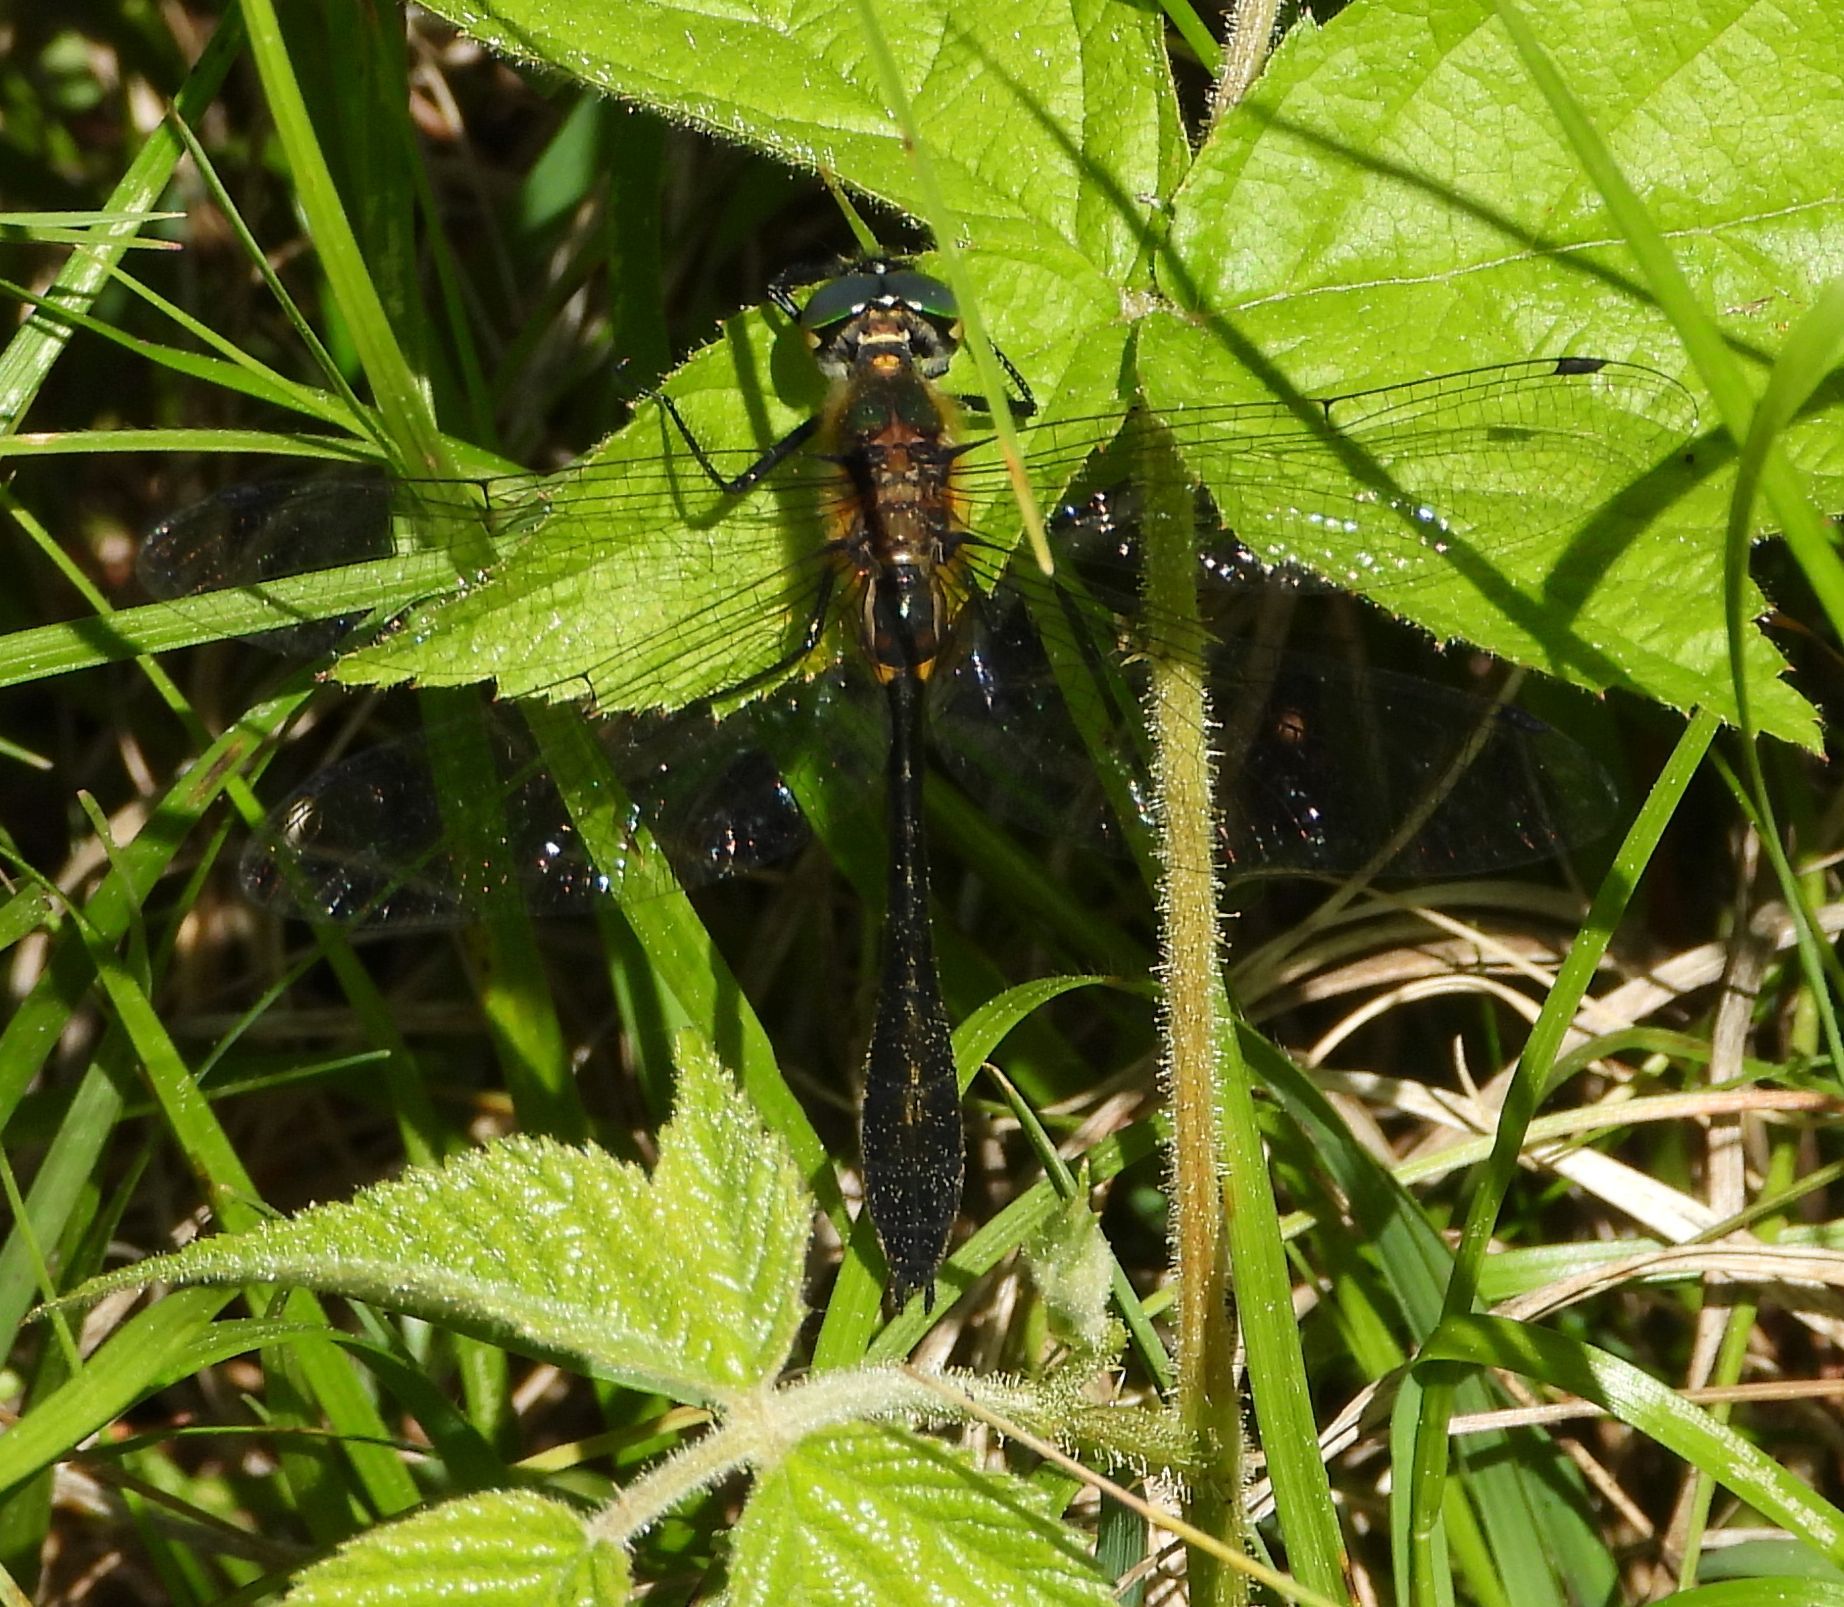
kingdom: Animalia
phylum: Arthropoda
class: Insecta
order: Odonata
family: Corduliidae
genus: Dorocordulia
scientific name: Dorocordulia libera
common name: Racket-tailed emerald
